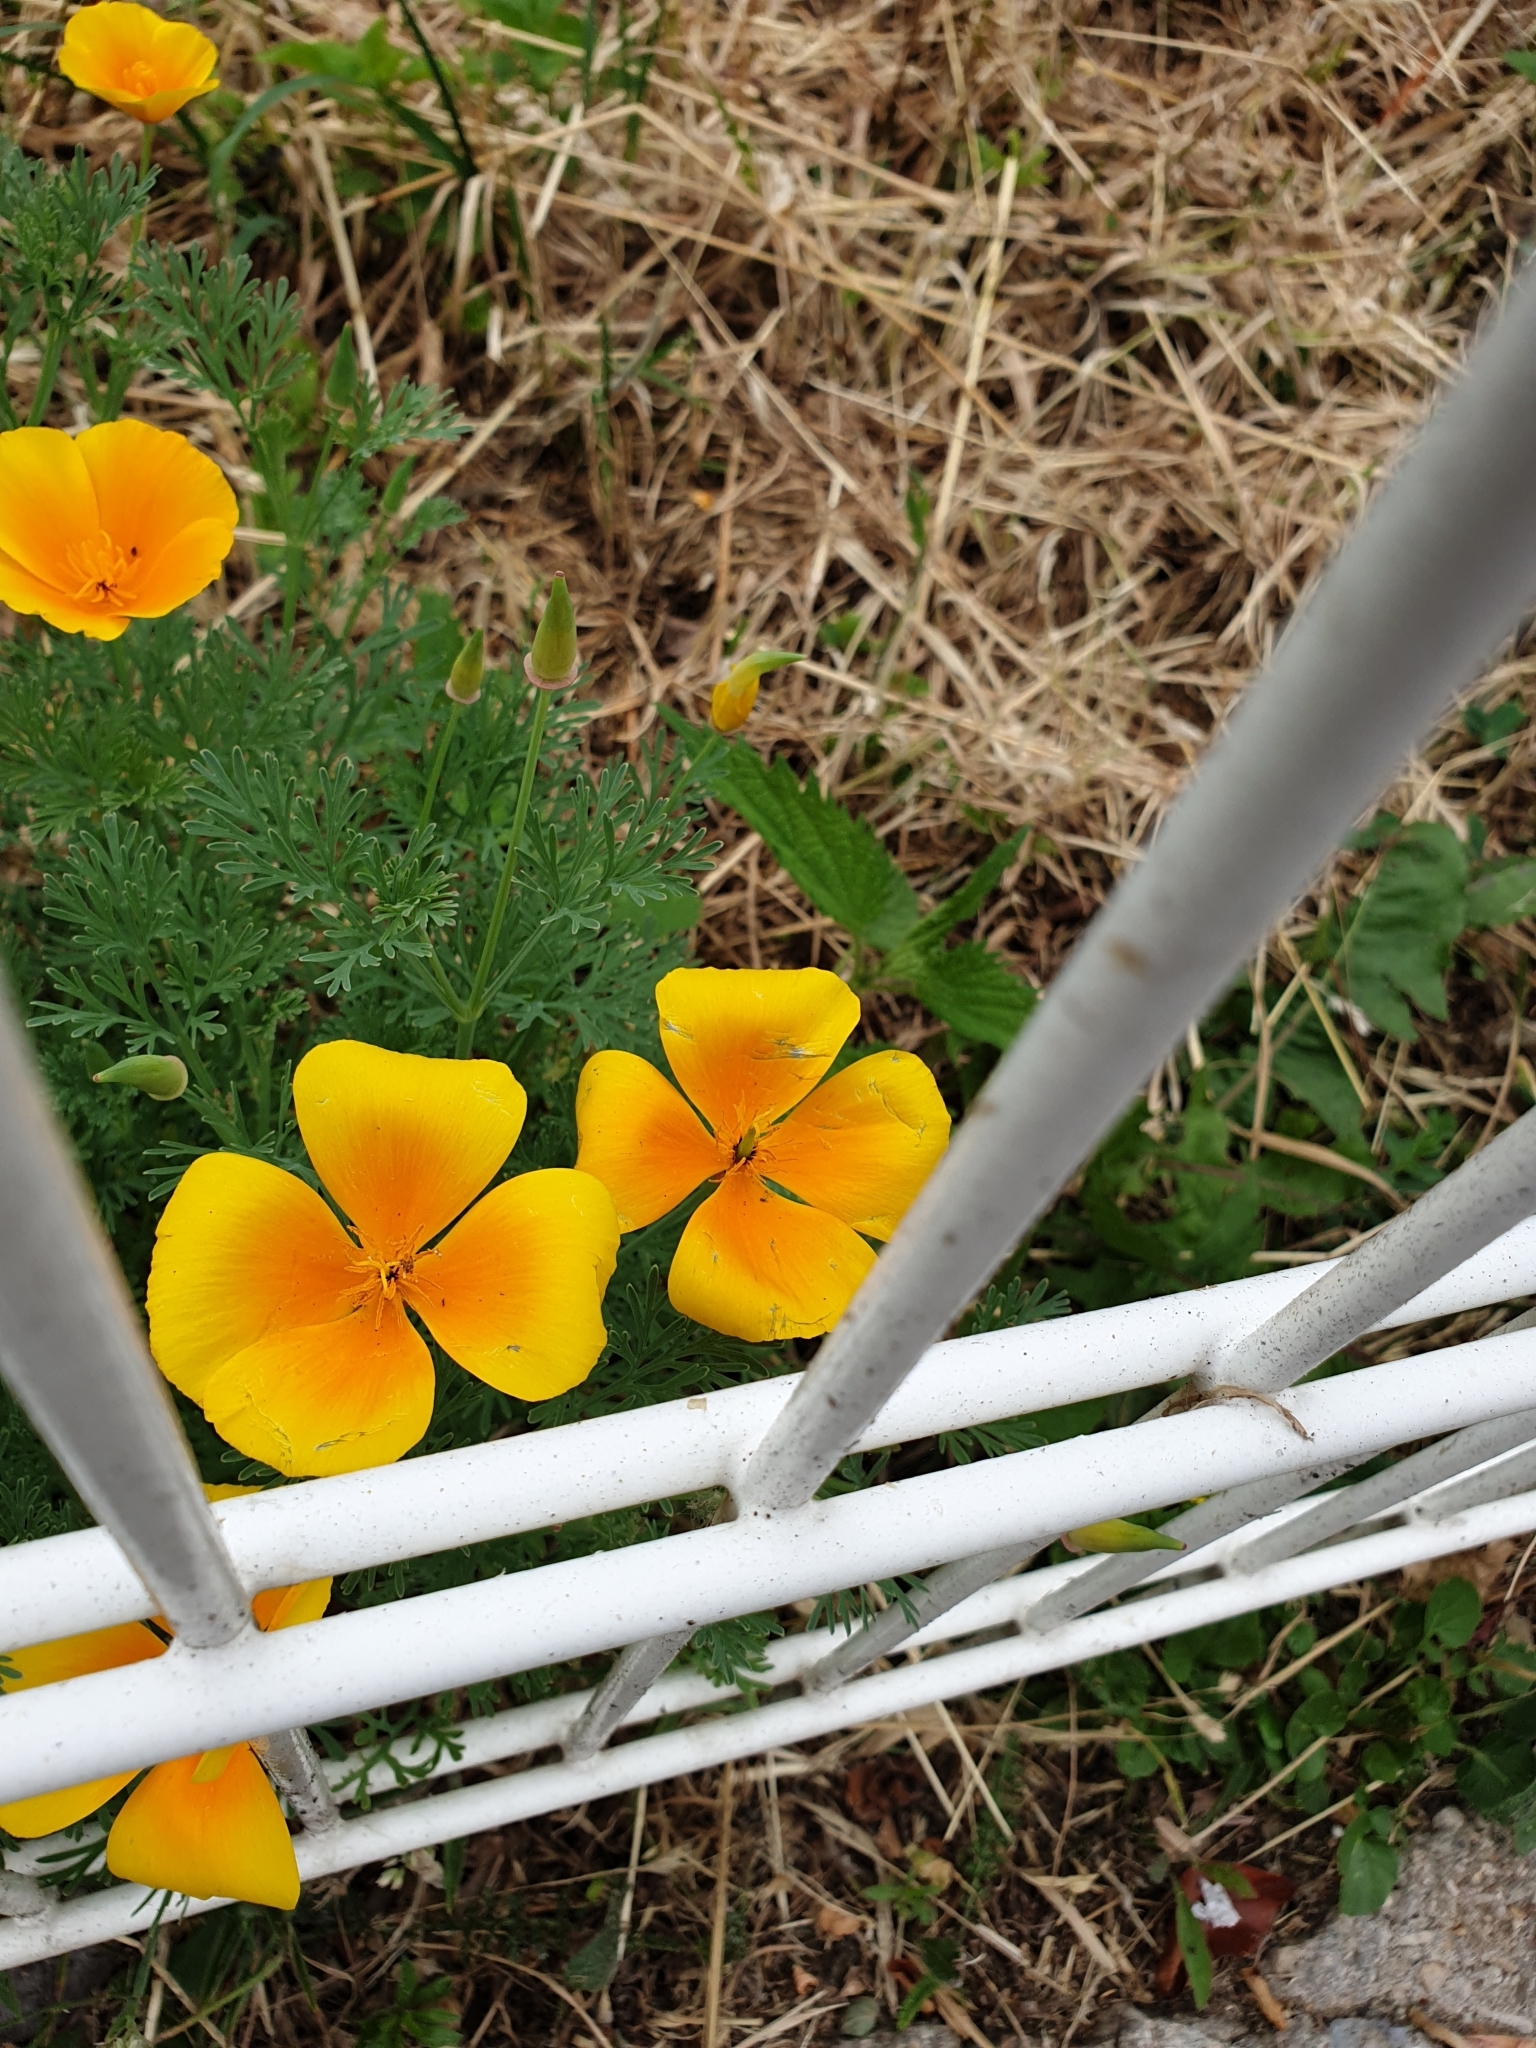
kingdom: Plantae
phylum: Tracheophyta
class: Magnoliopsida
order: Ranunculales
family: Papaveraceae
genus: Eschscholzia
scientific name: Eschscholzia californica
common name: California poppy
